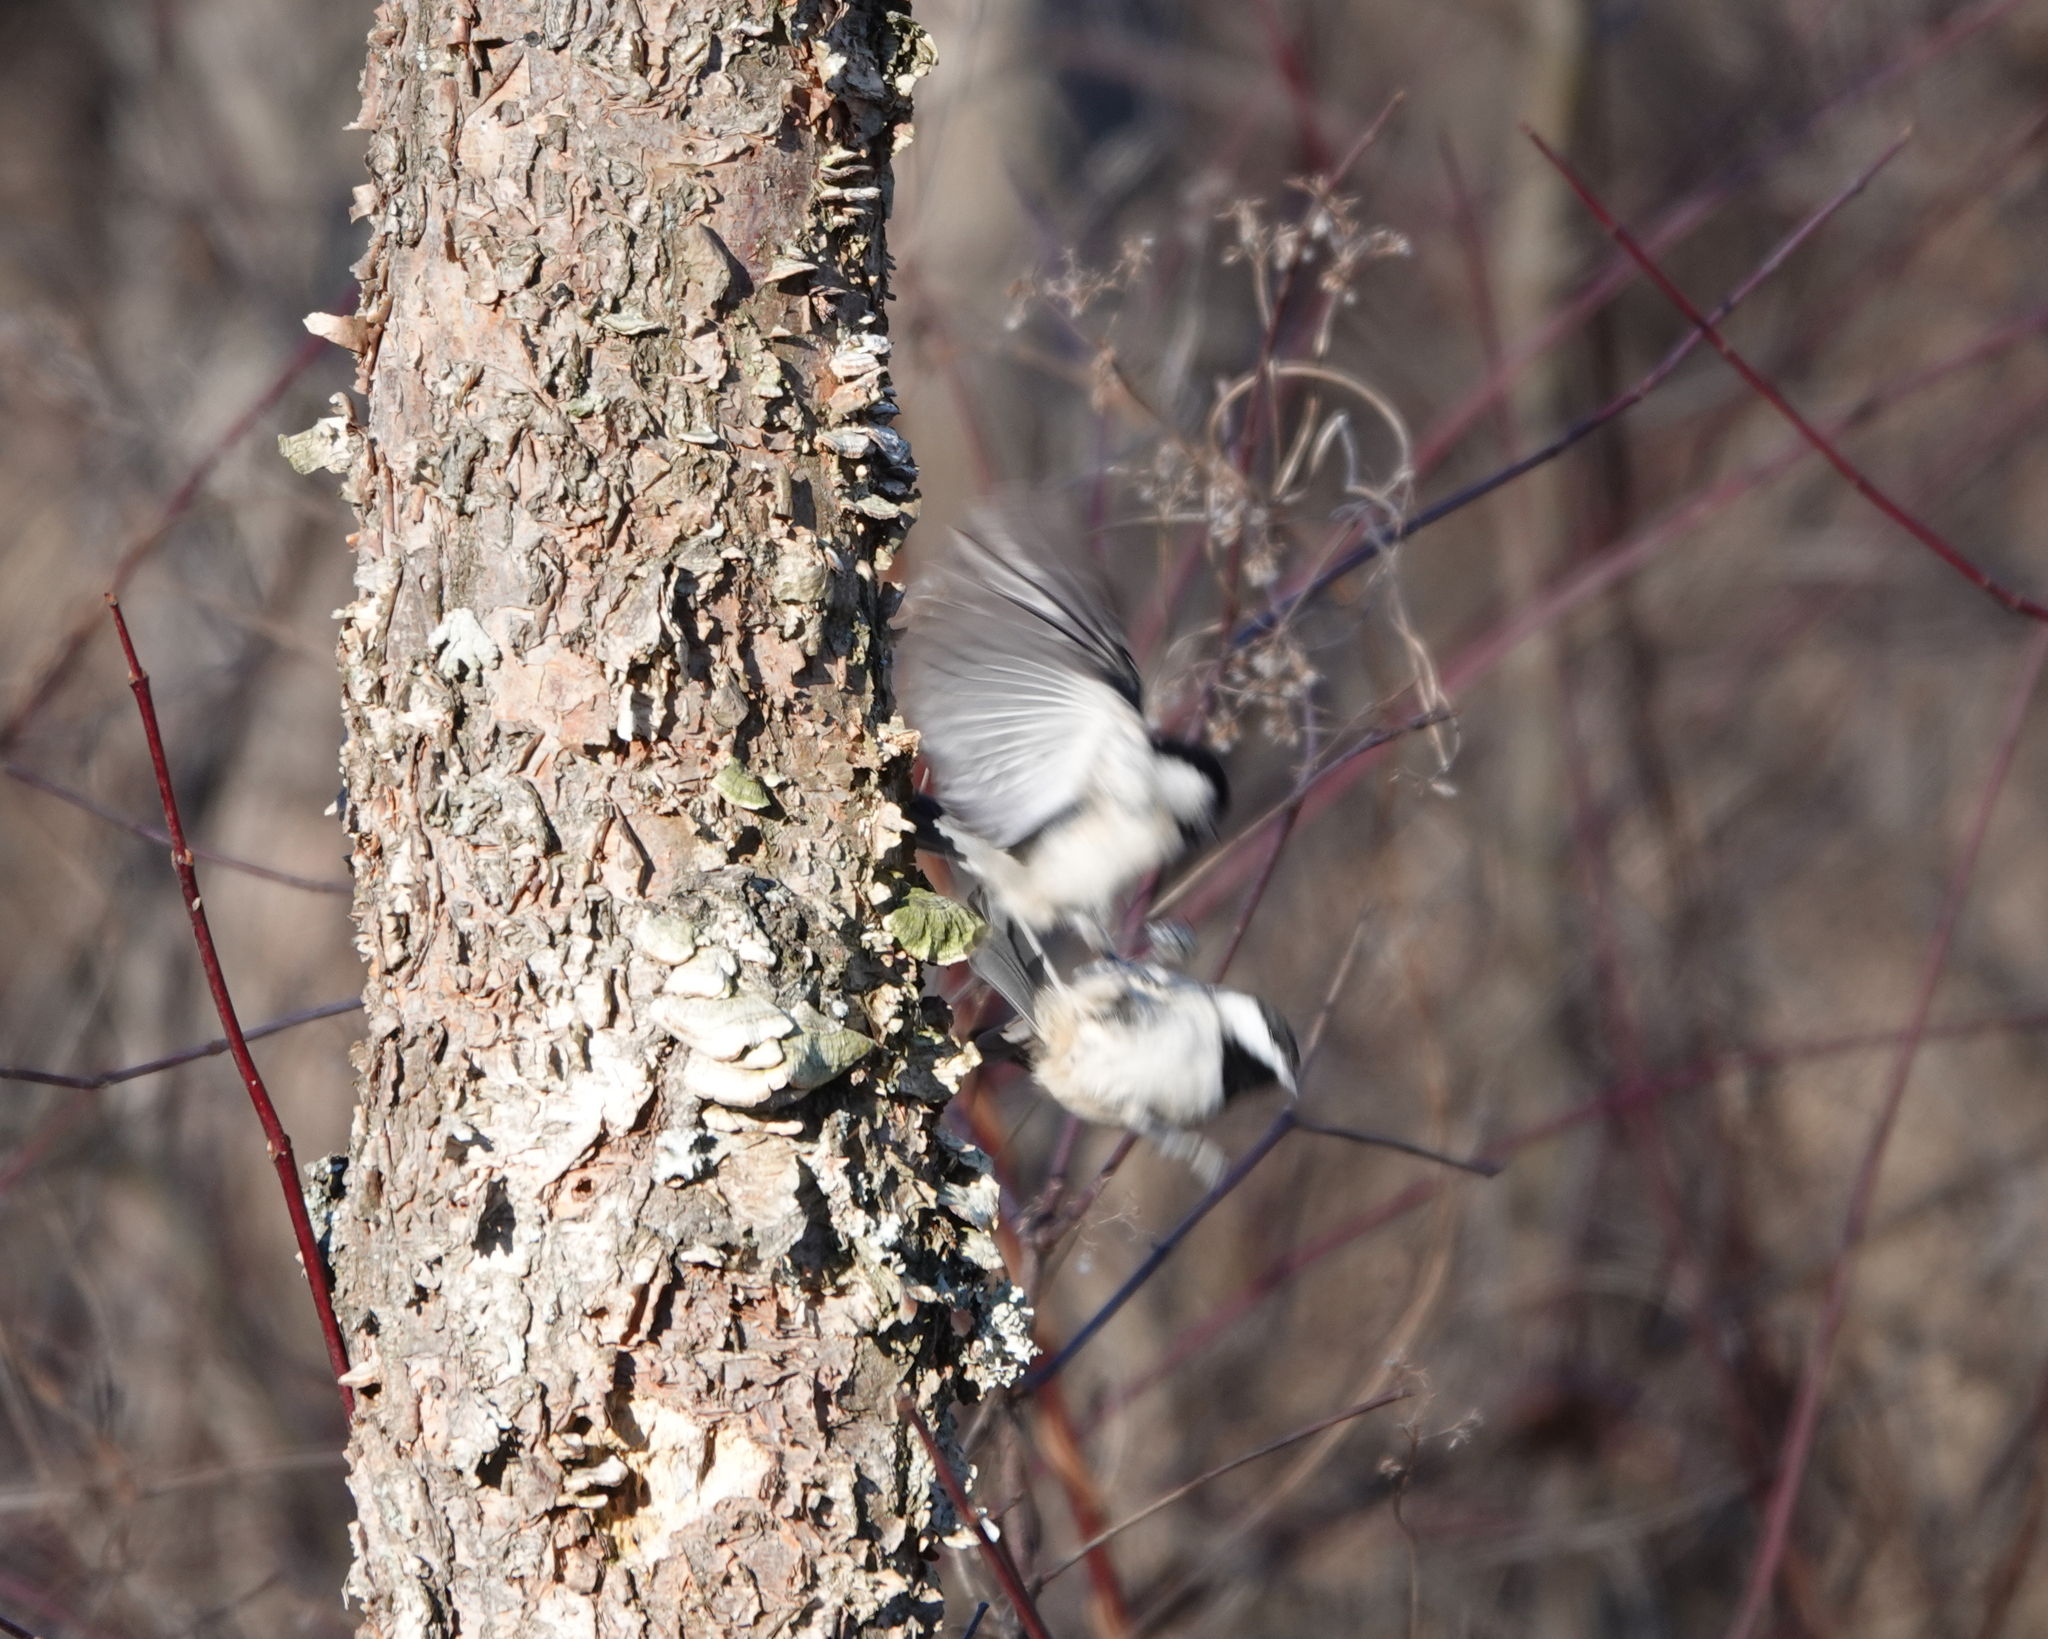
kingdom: Animalia
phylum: Chordata
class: Aves
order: Passeriformes
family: Paridae
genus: Poecile
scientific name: Poecile carolinensis
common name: Carolina chickadee
